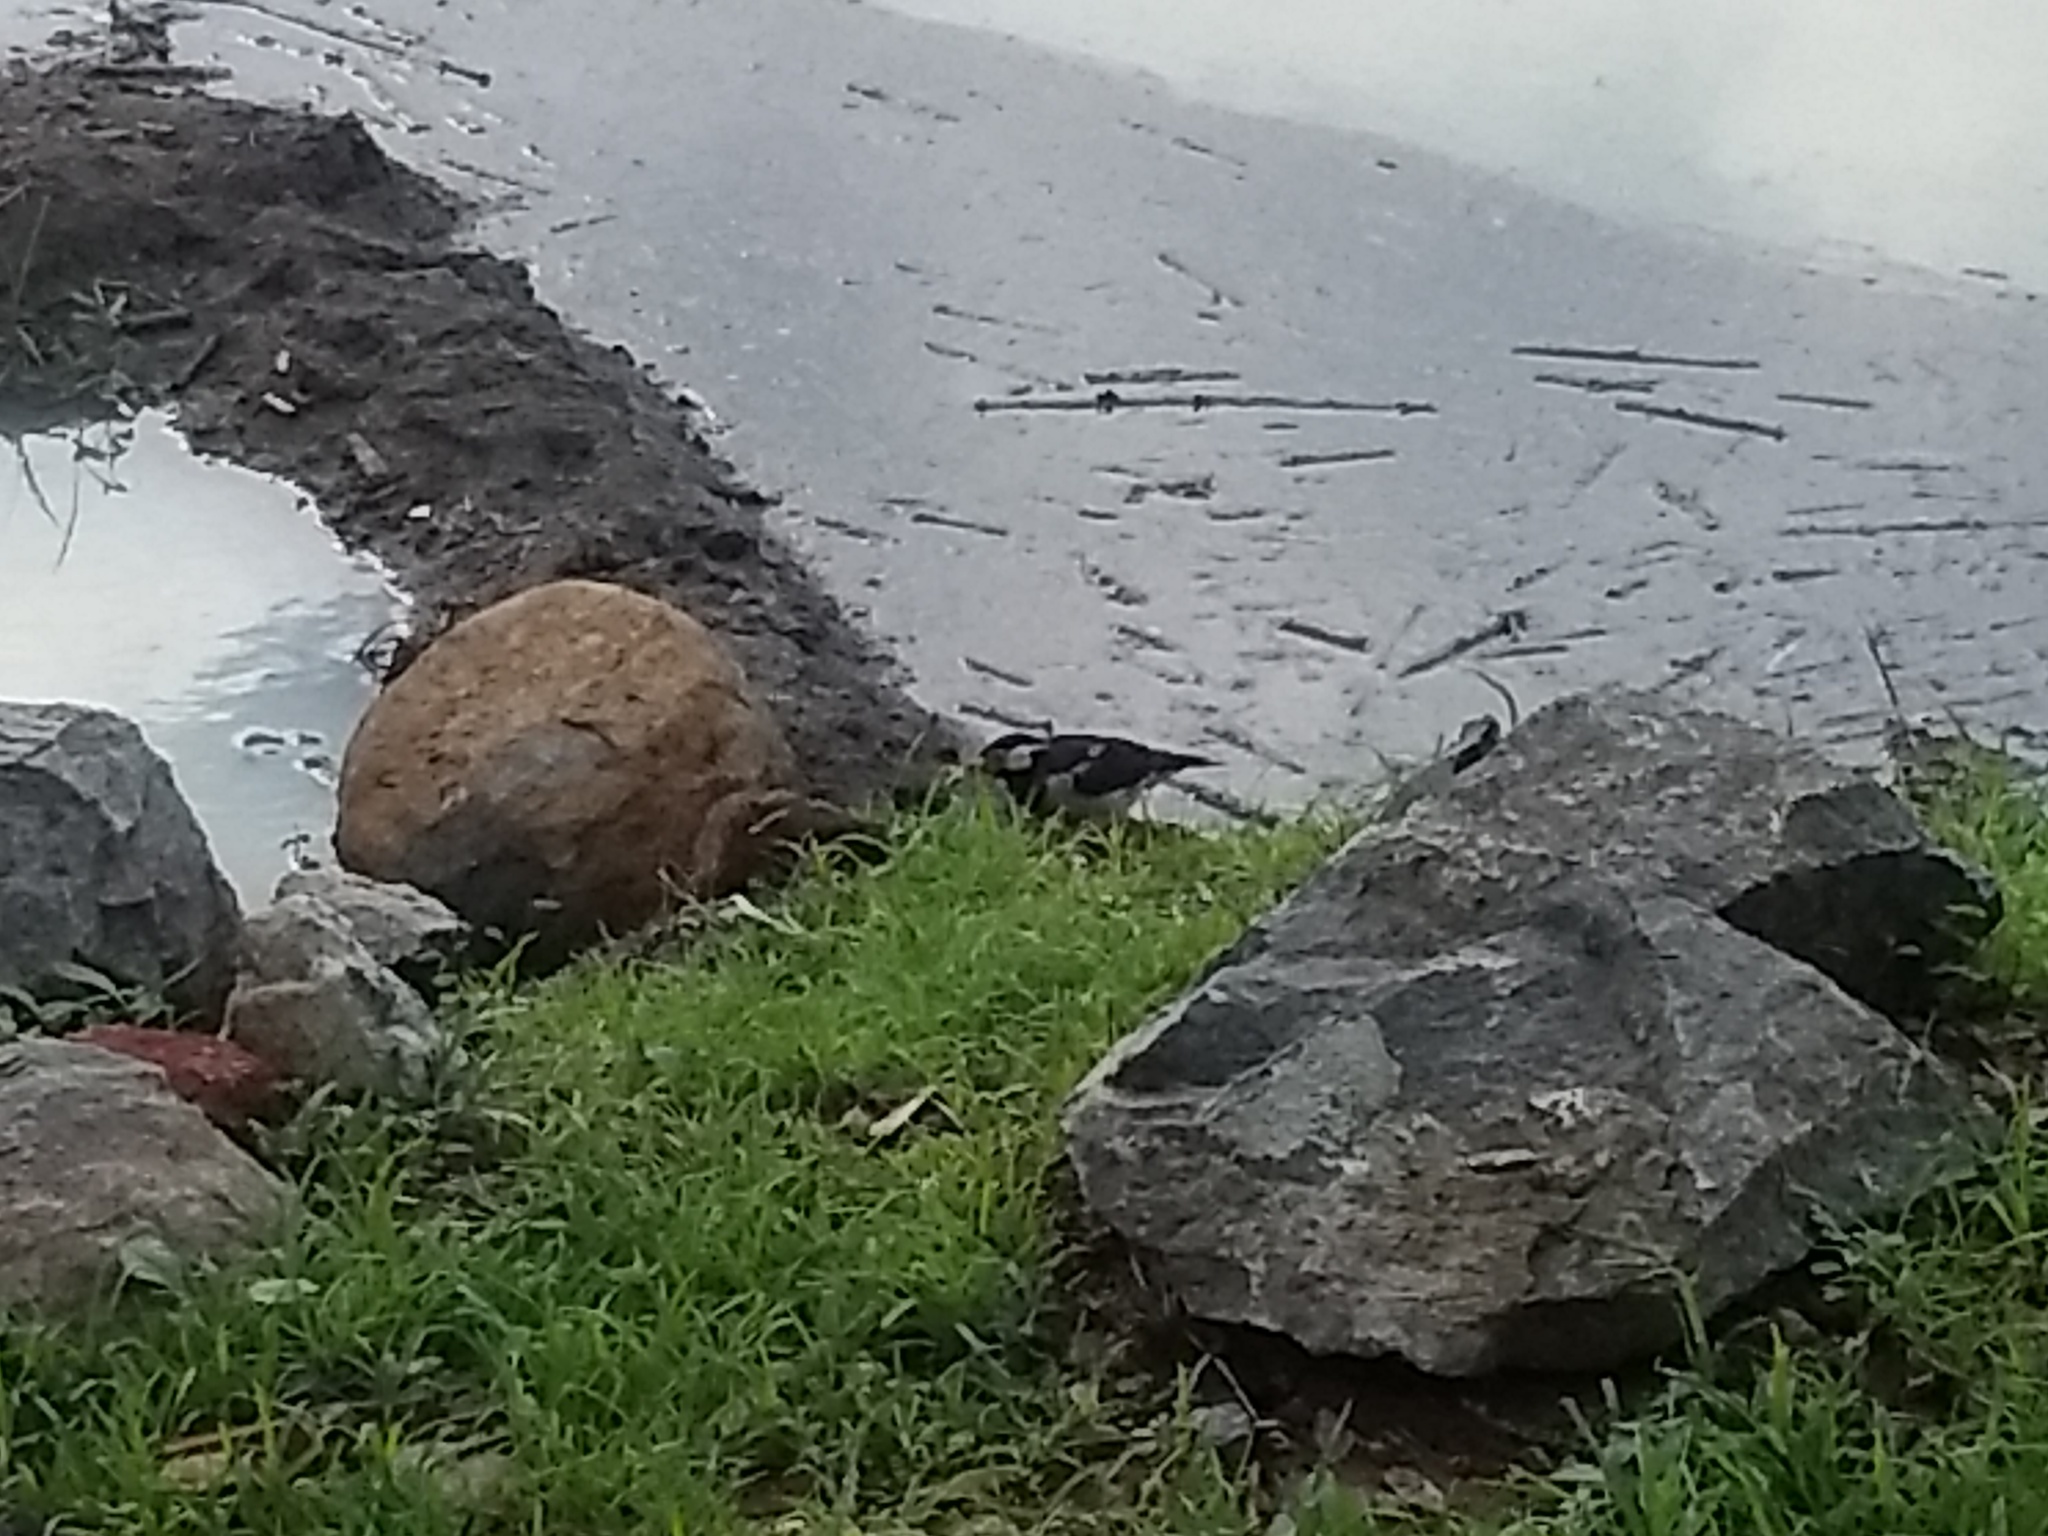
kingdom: Animalia
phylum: Chordata
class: Aves
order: Passeriformes
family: Sturnidae
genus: Gracupica
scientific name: Gracupica contra
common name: Pied myna
